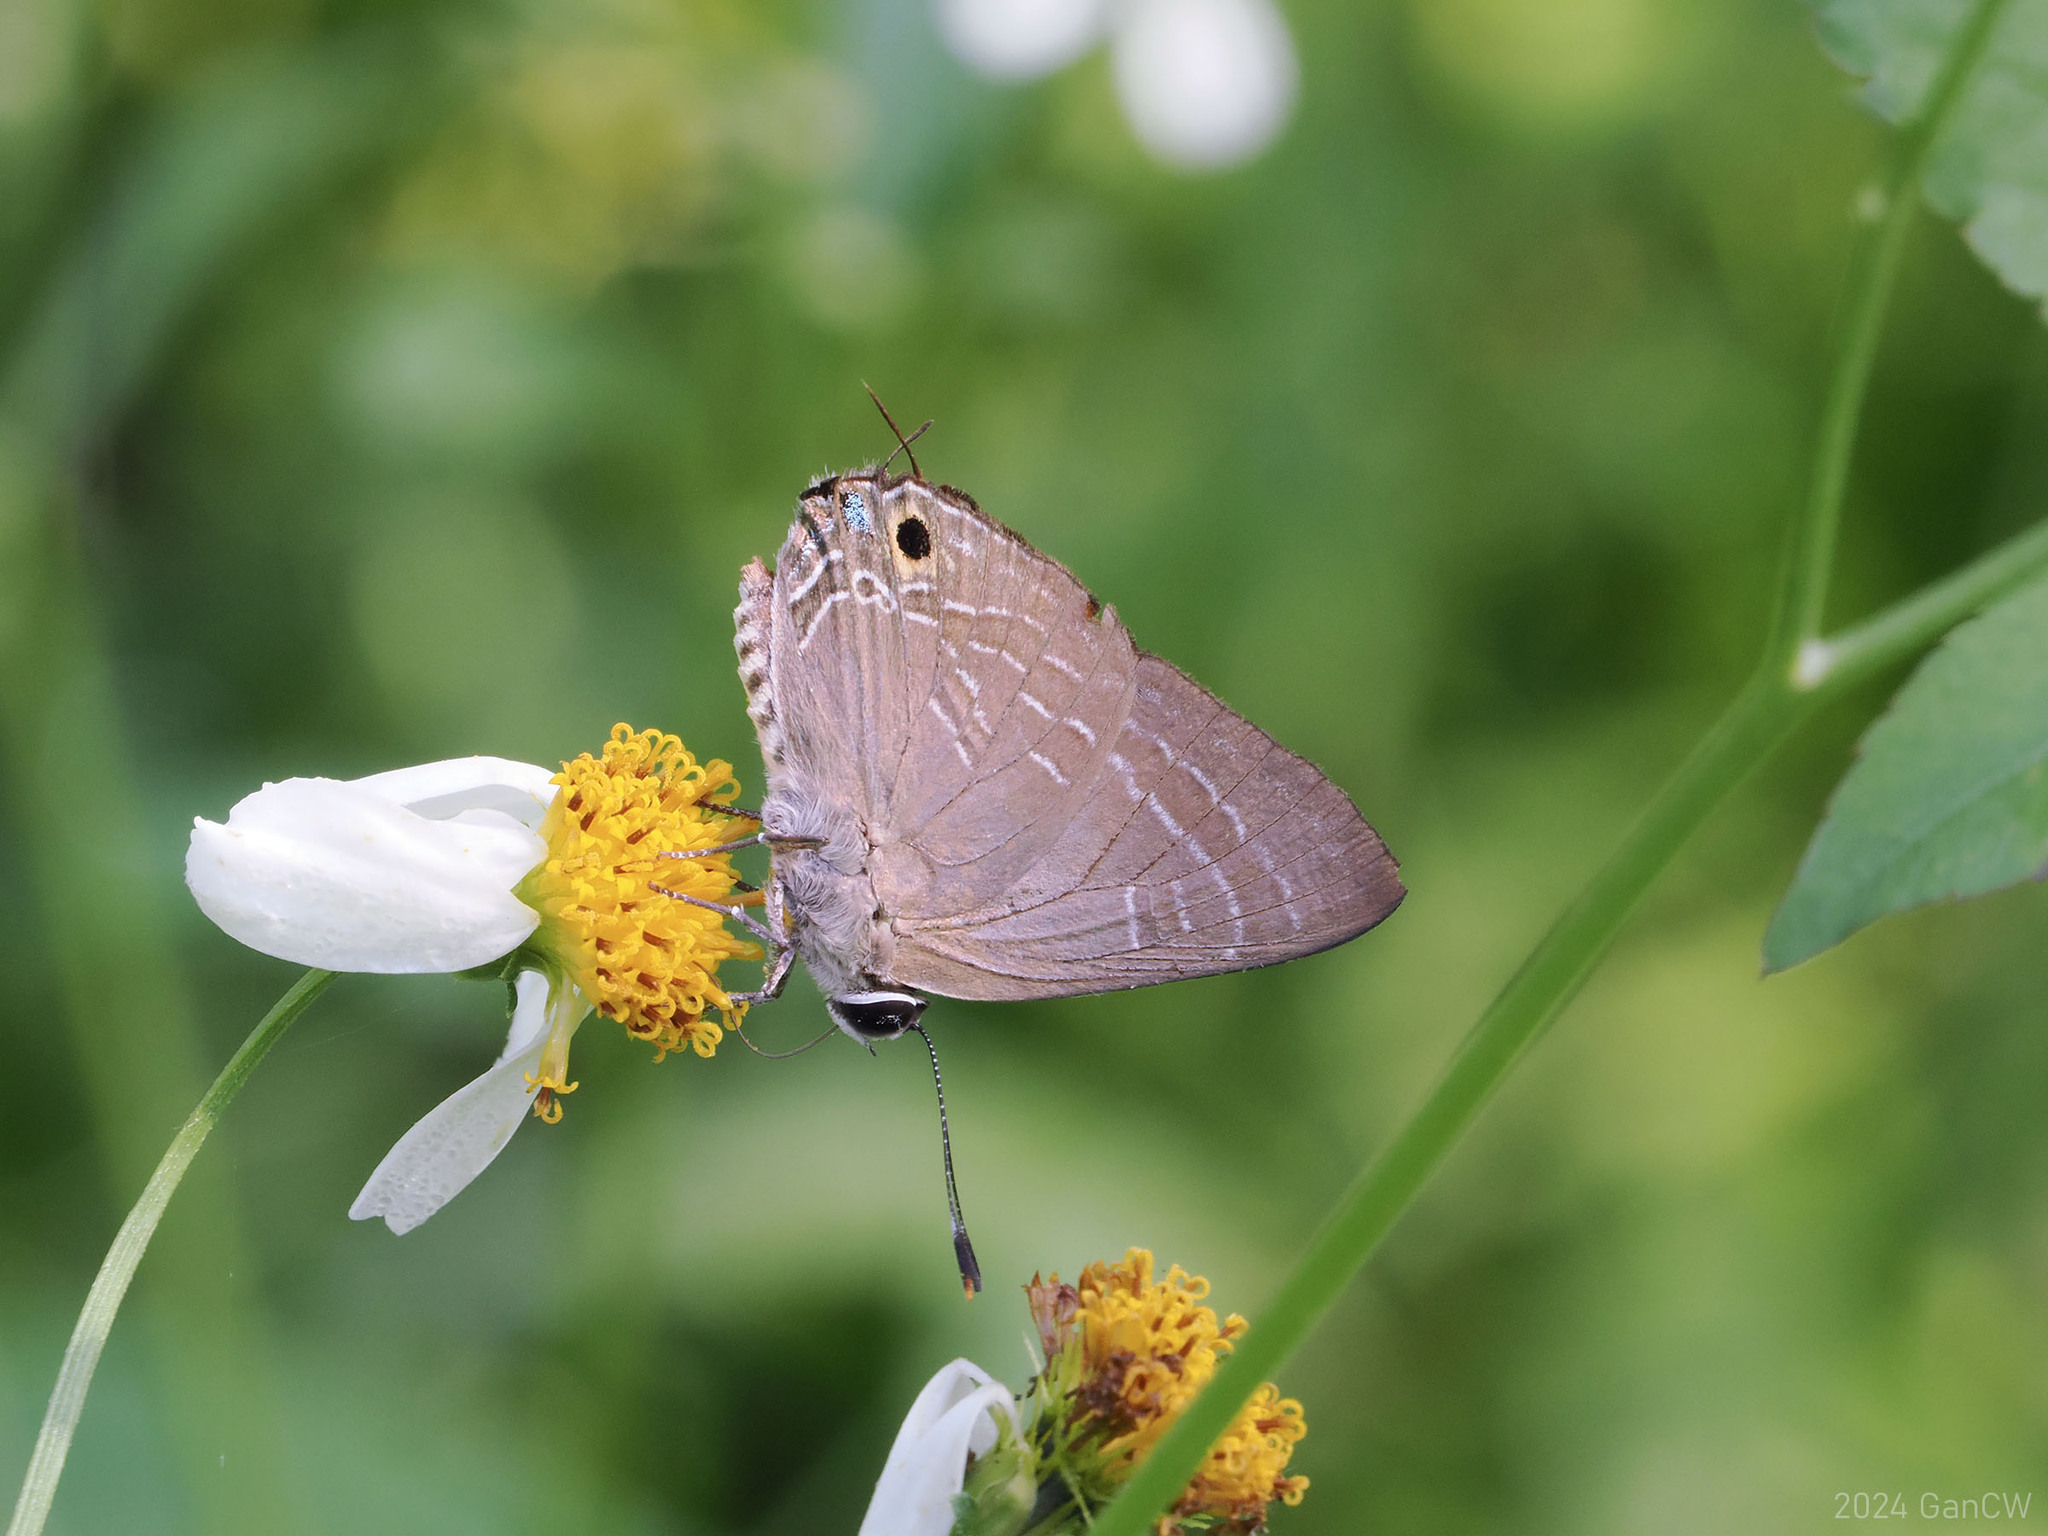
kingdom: Animalia
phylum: Arthropoda
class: Insecta
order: Lepidoptera
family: Lycaenidae
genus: Deudorix
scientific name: Deudorix epijarbas
